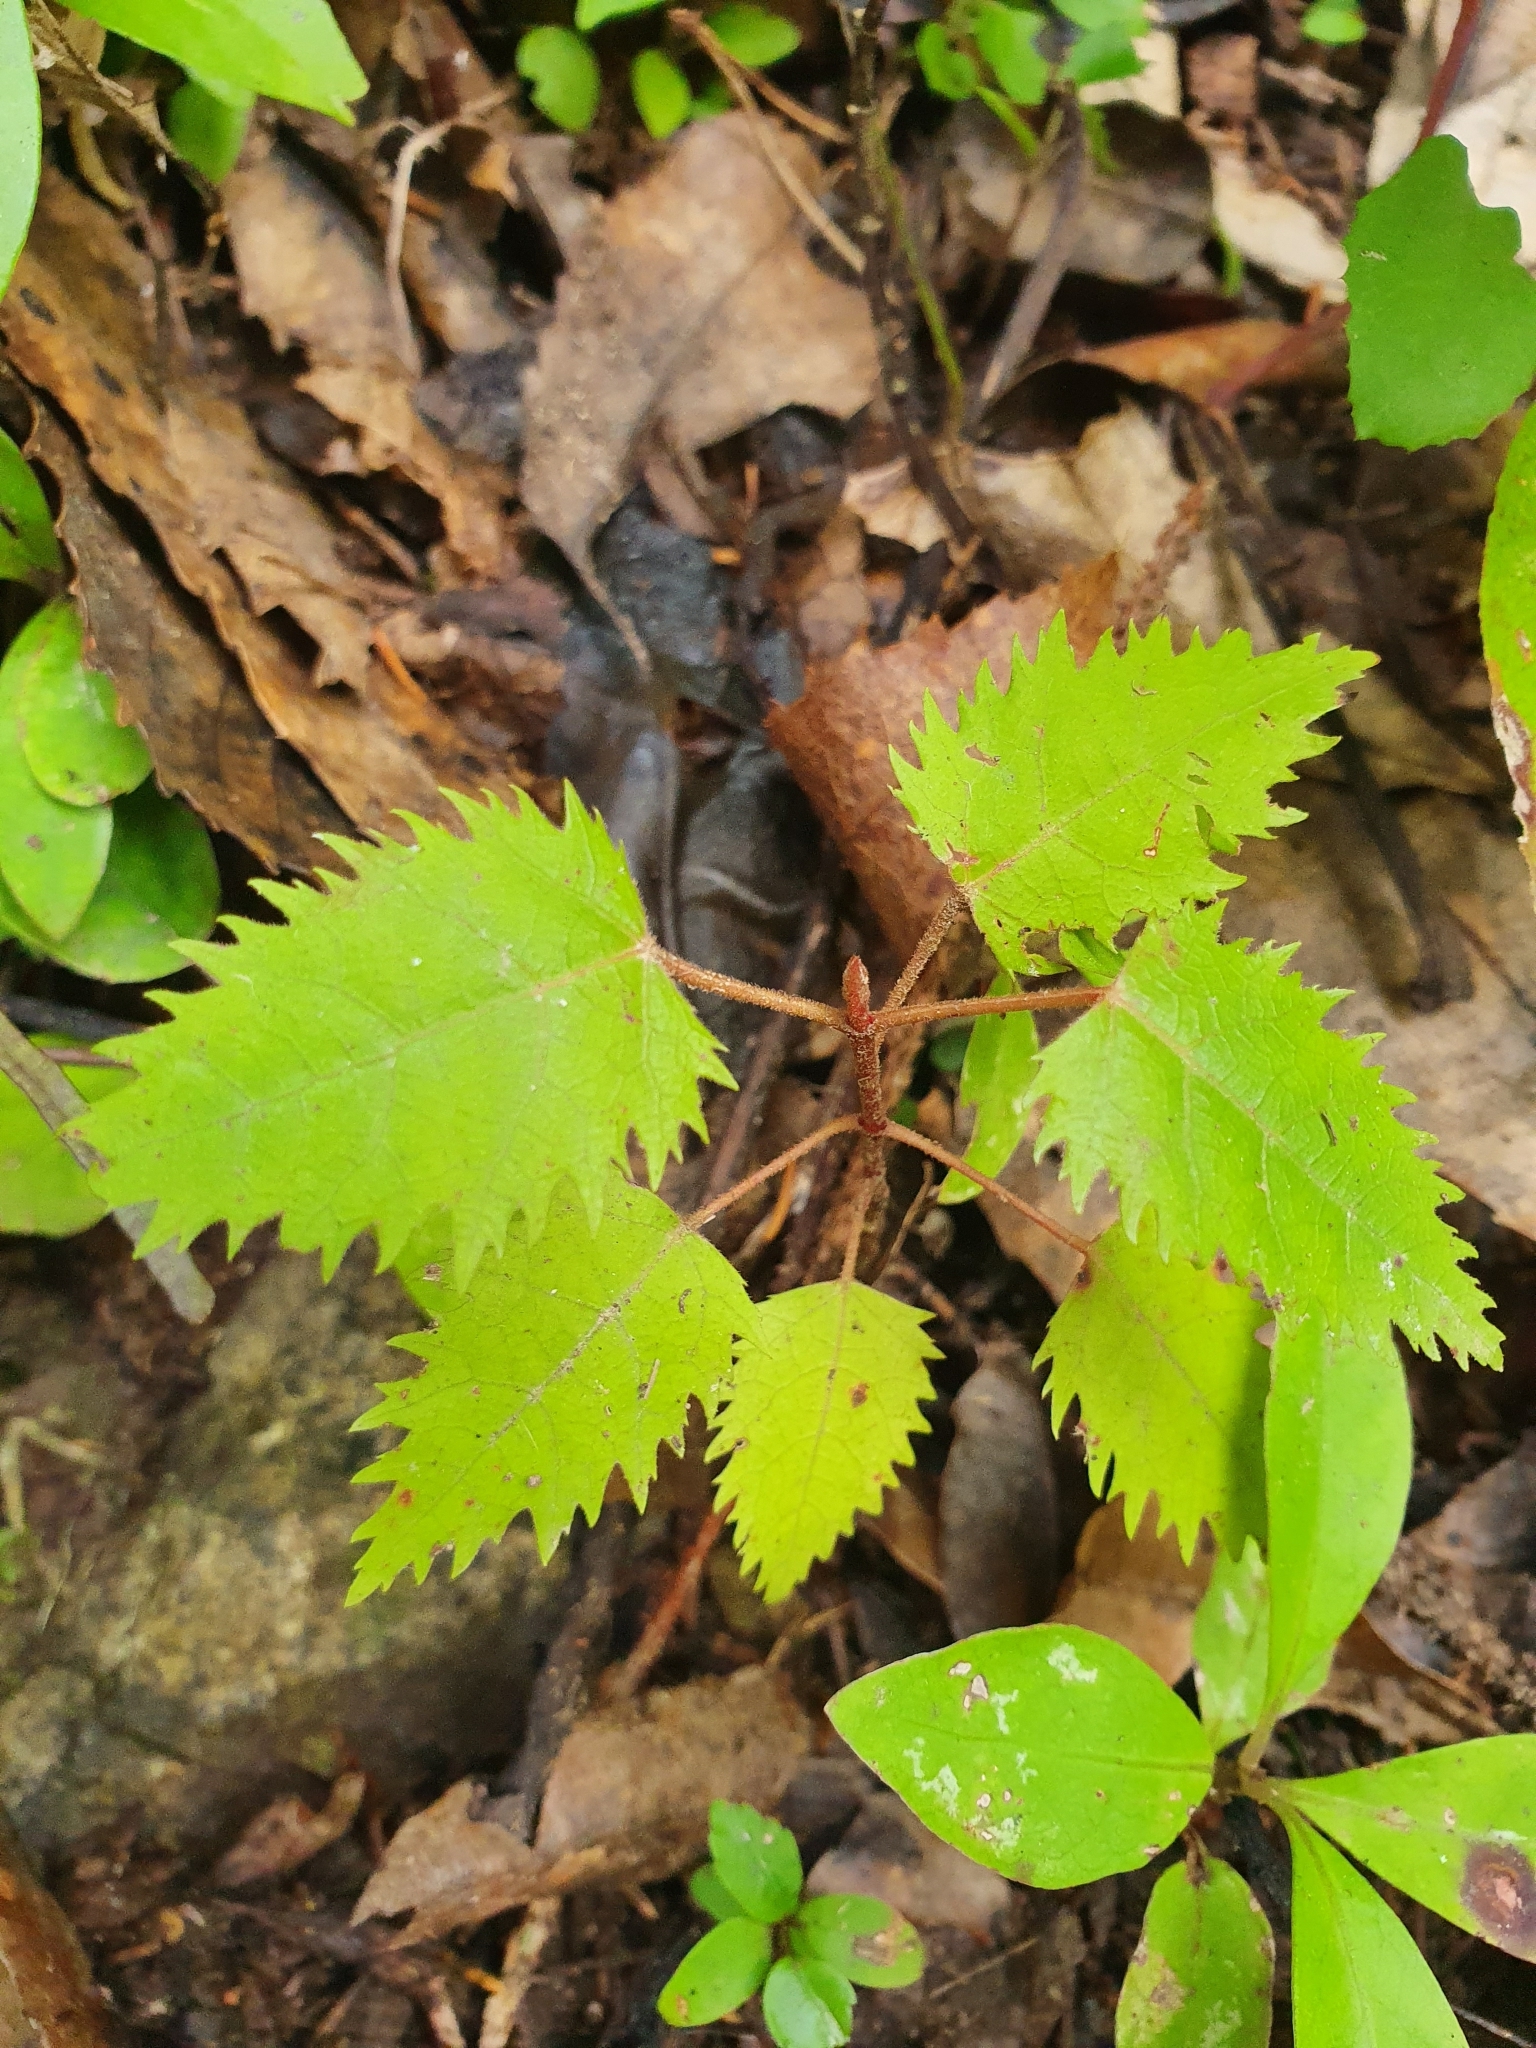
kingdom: Plantae
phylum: Tracheophyta
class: Magnoliopsida
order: Oxalidales
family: Elaeocarpaceae
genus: Aristotelia
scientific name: Aristotelia serrata
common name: New zealand wineberry
